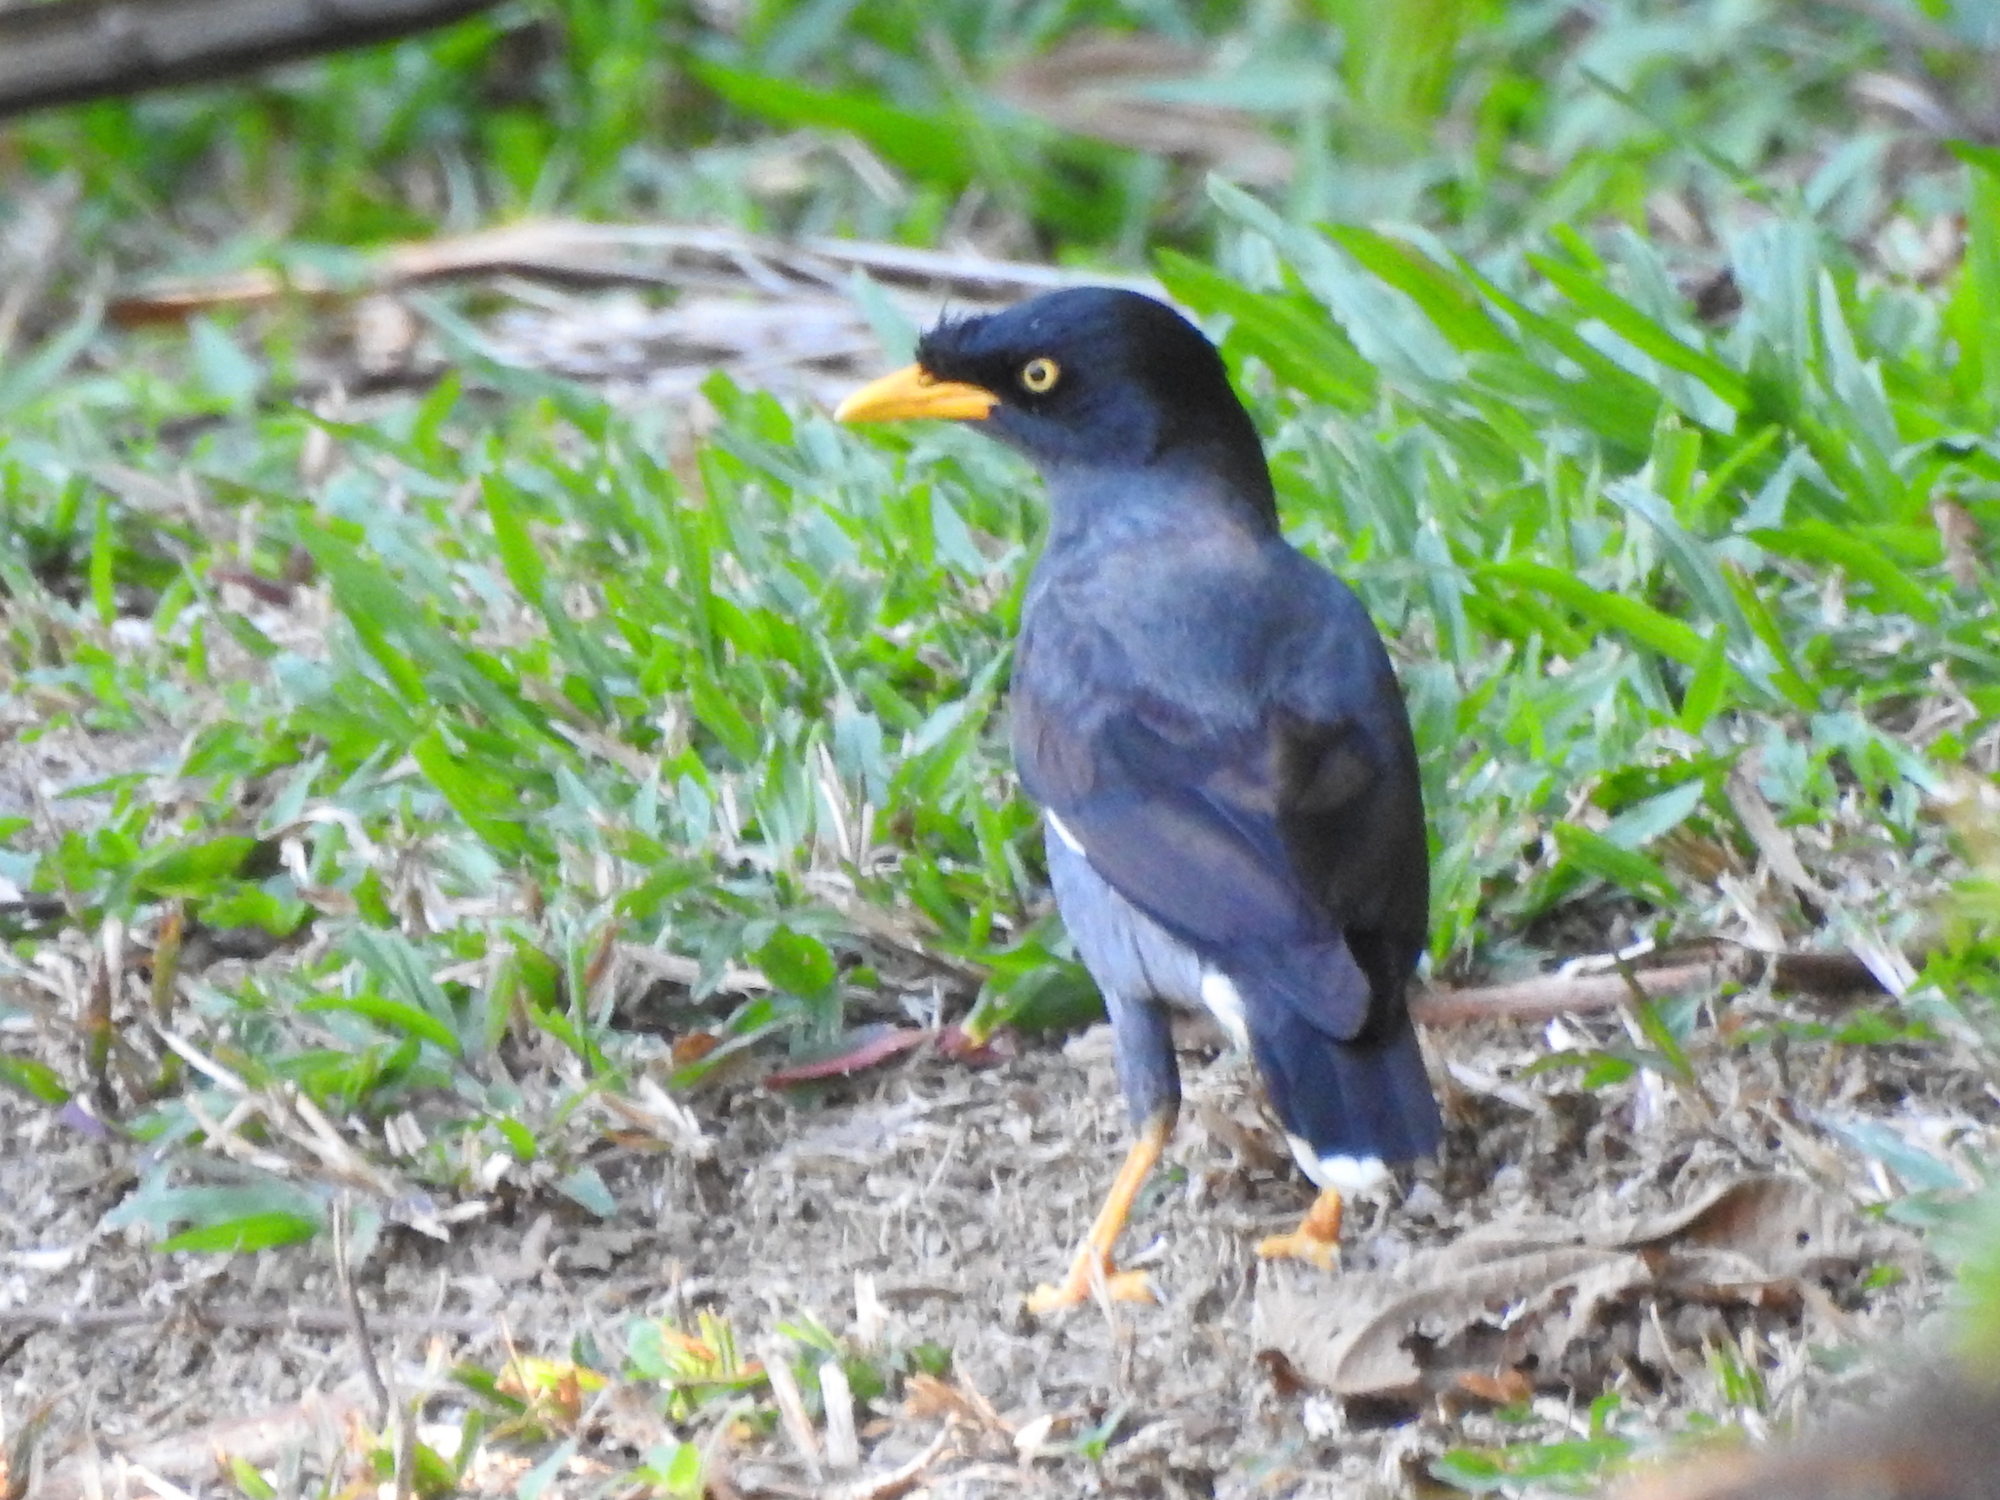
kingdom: Animalia
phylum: Chordata
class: Aves
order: Passeriformes
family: Sturnidae
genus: Acridotheres
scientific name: Acridotheres javanicus
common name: Javan myna
